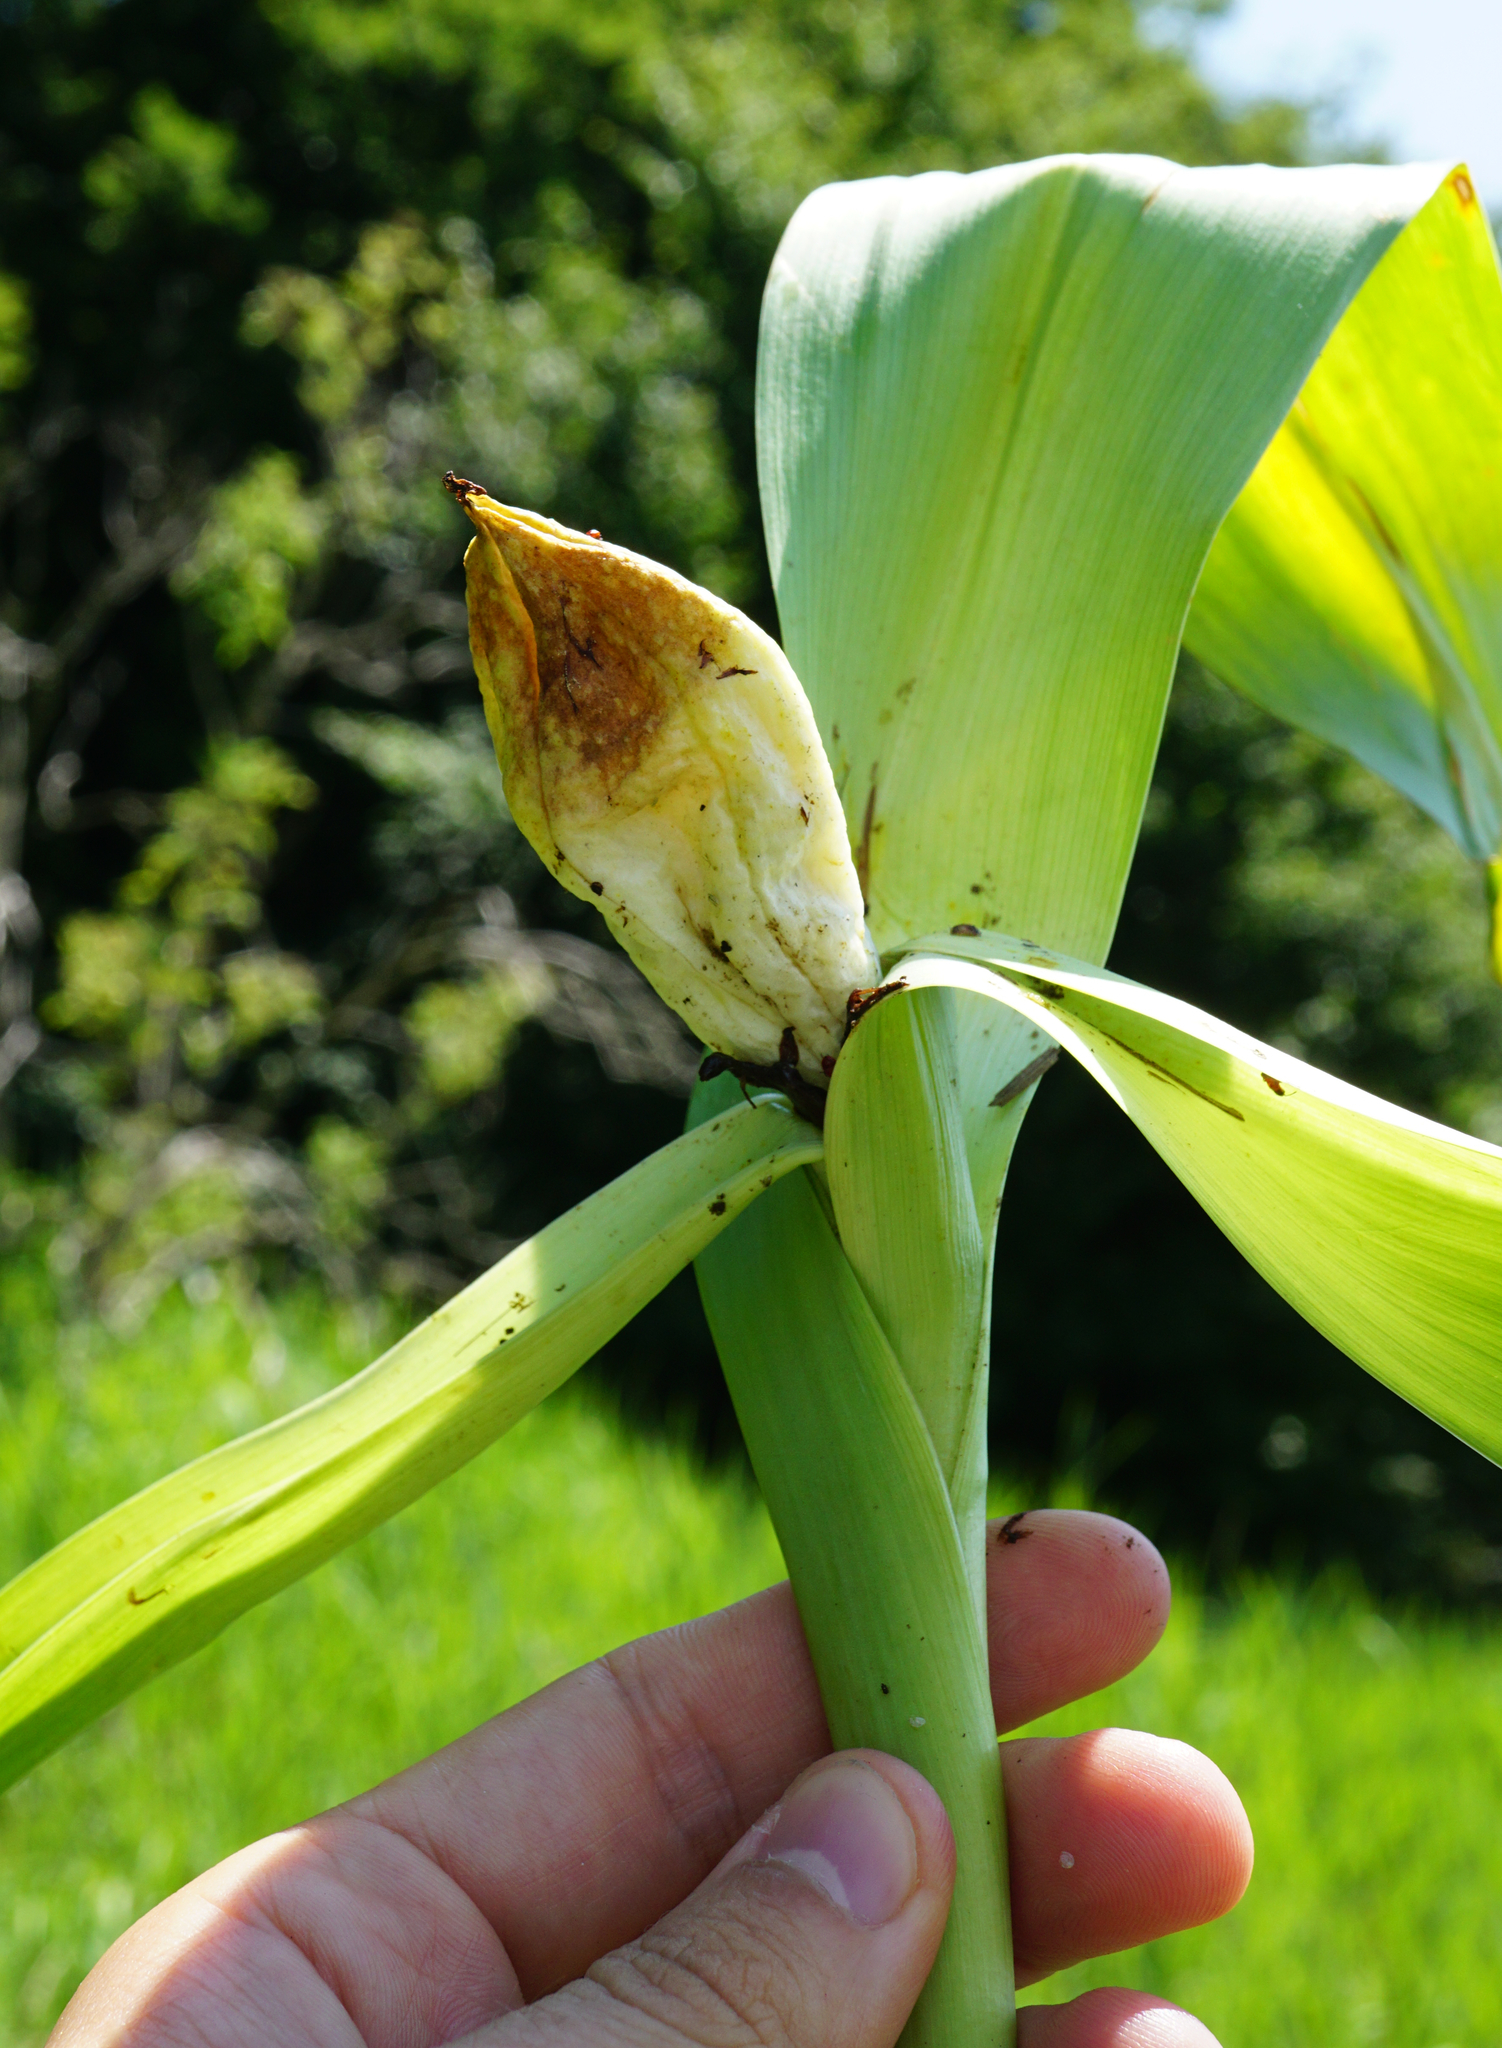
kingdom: Plantae
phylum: Tracheophyta
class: Liliopsida
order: Liliales
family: Colchicaceae
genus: Colchicum
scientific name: Colchicum autumnale
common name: Autumn crocus
